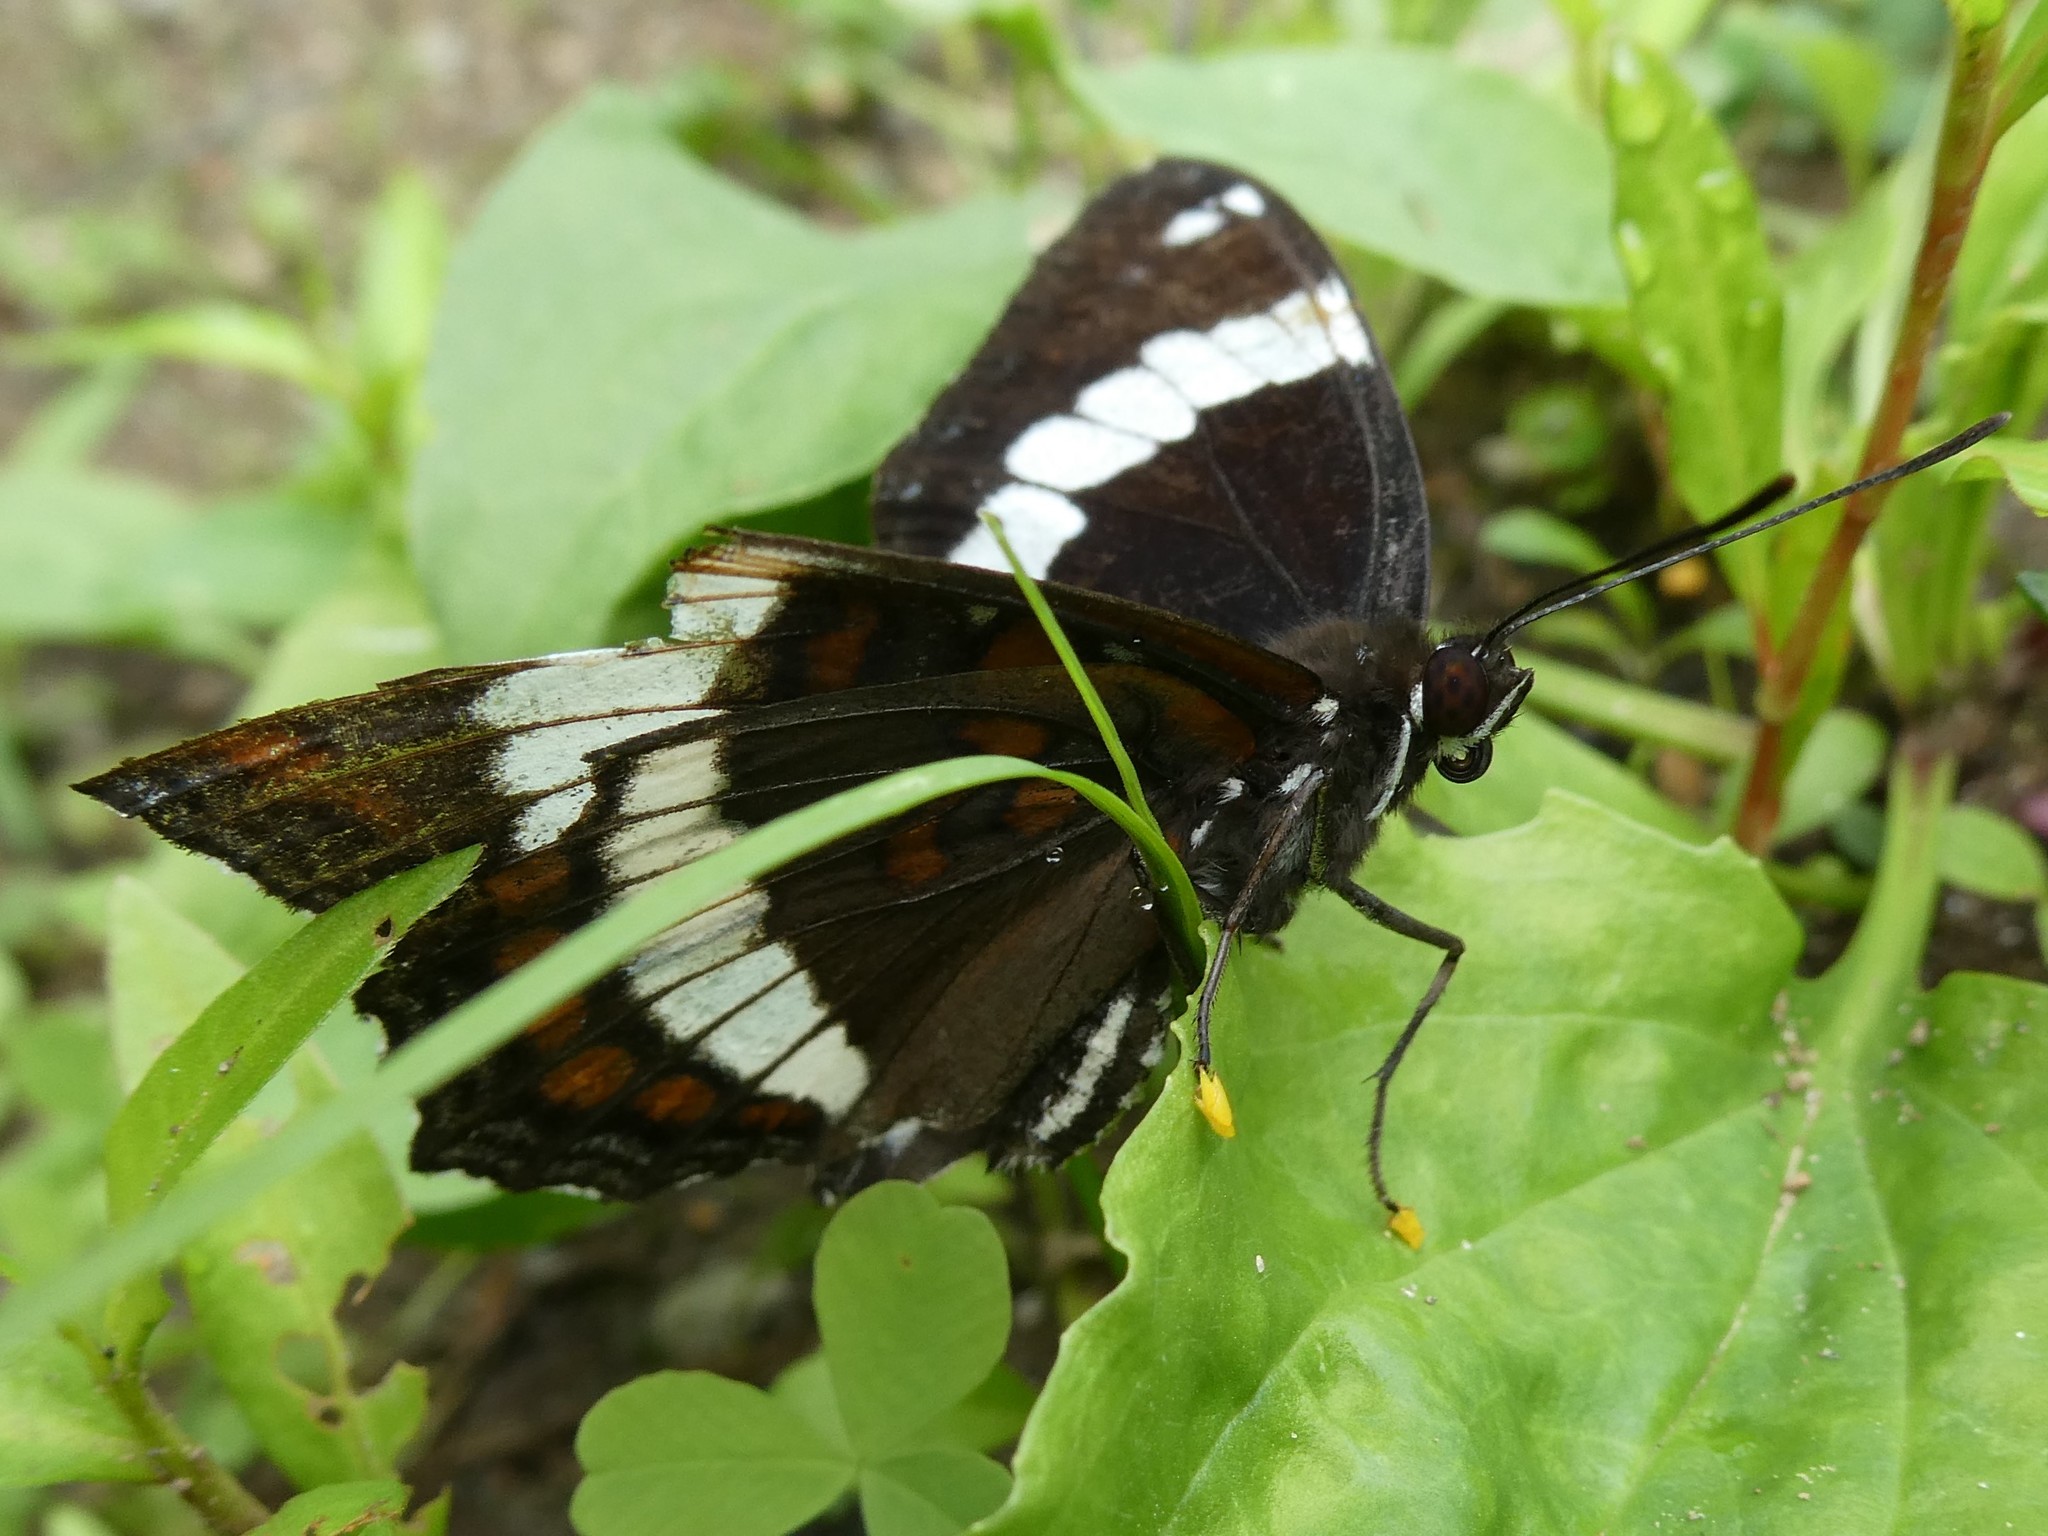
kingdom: Animalia
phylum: Arthropoda
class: Insecta
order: Lepidoptera
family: Nymphalidae
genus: Limenitis
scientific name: Limenitis arthemis
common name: Red-spotted admiral
